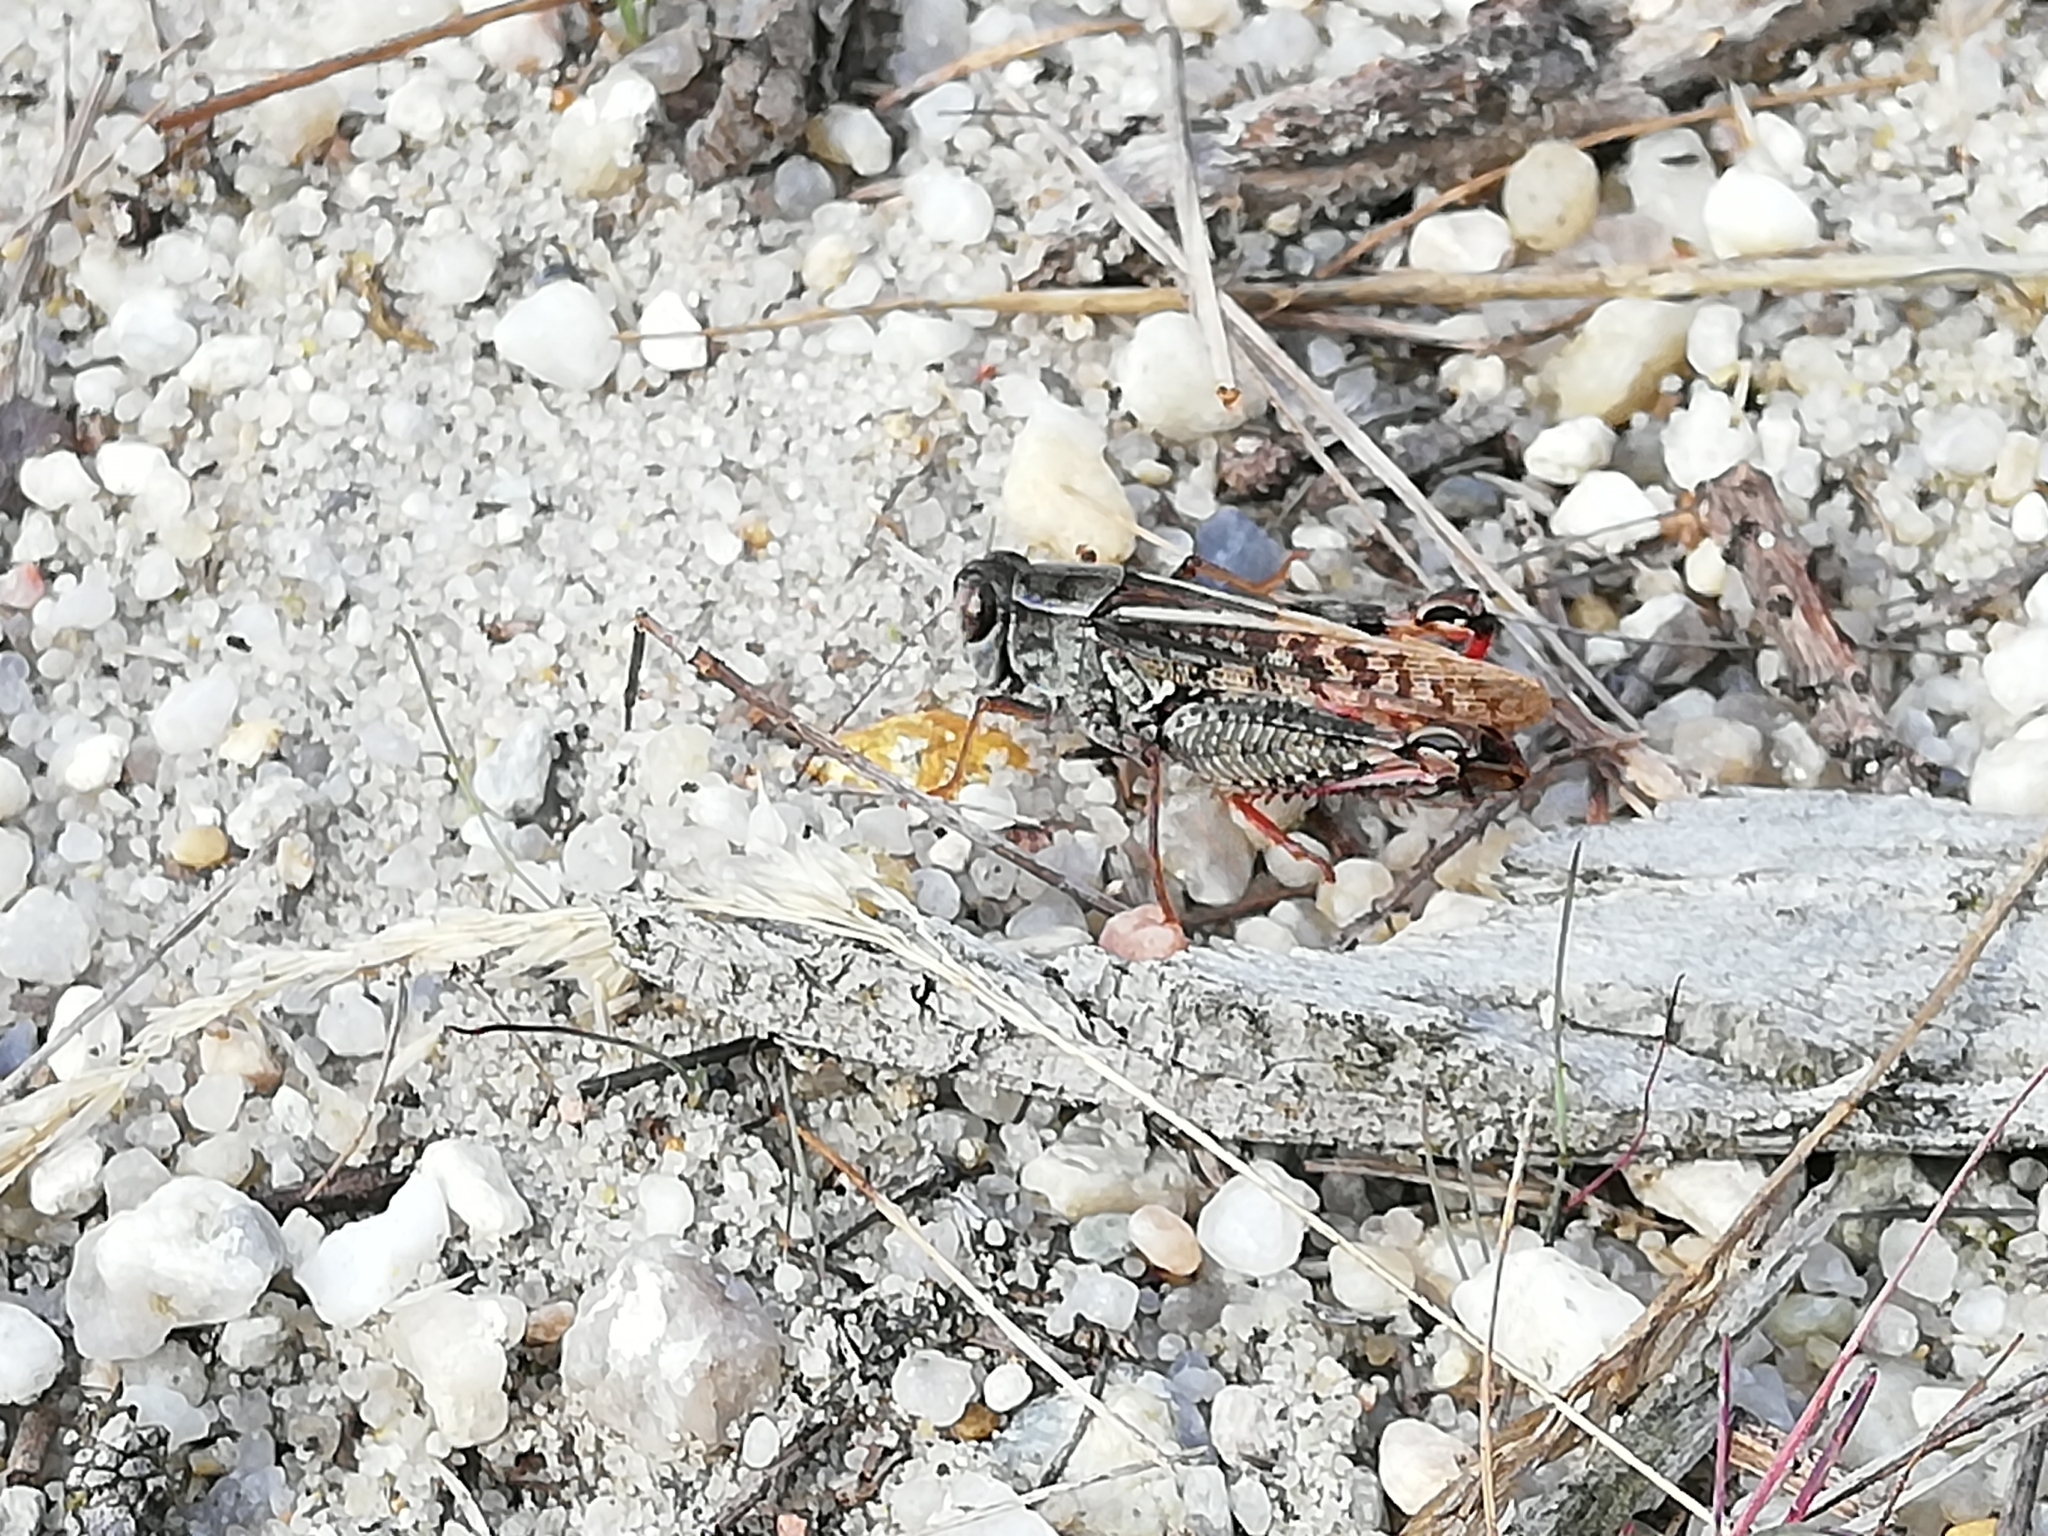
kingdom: Animalia
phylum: Arthropoda
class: Insecta
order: Orthoptera
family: Acrididae
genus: Calliptamus
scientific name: Calliptamus italicus
